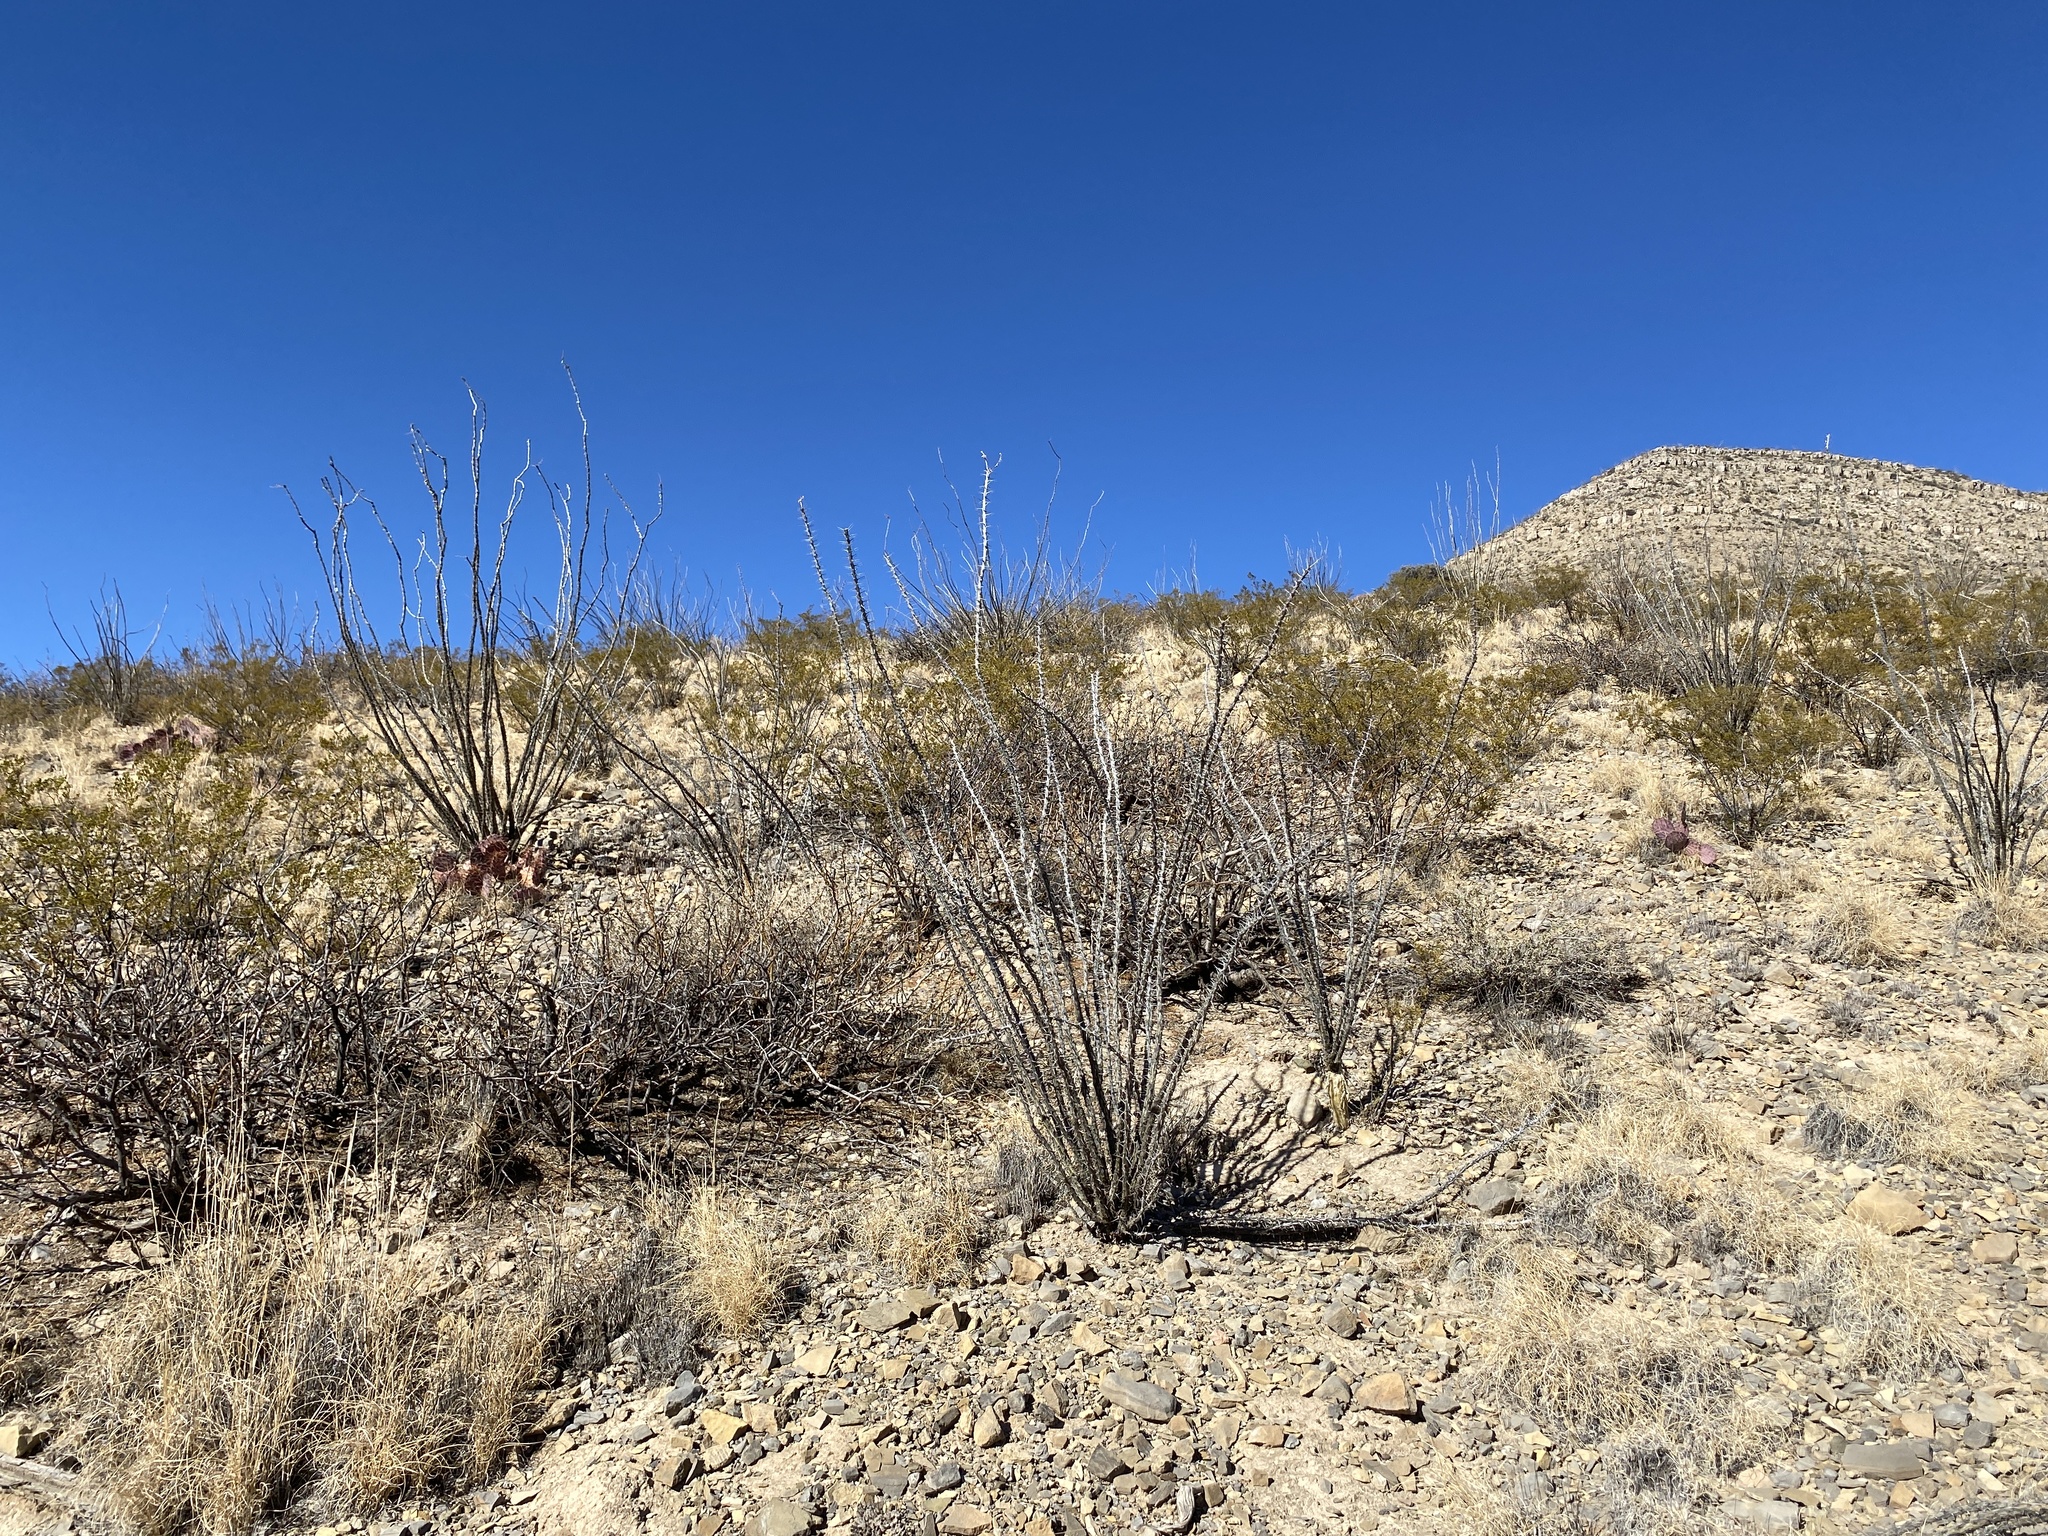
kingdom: Plantae
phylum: Tracheophyta
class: Magnoliopsida
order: Ericales
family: Fouquieriaceae
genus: Fouquieria
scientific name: Fouquieria splendens
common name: Vine-cactus
